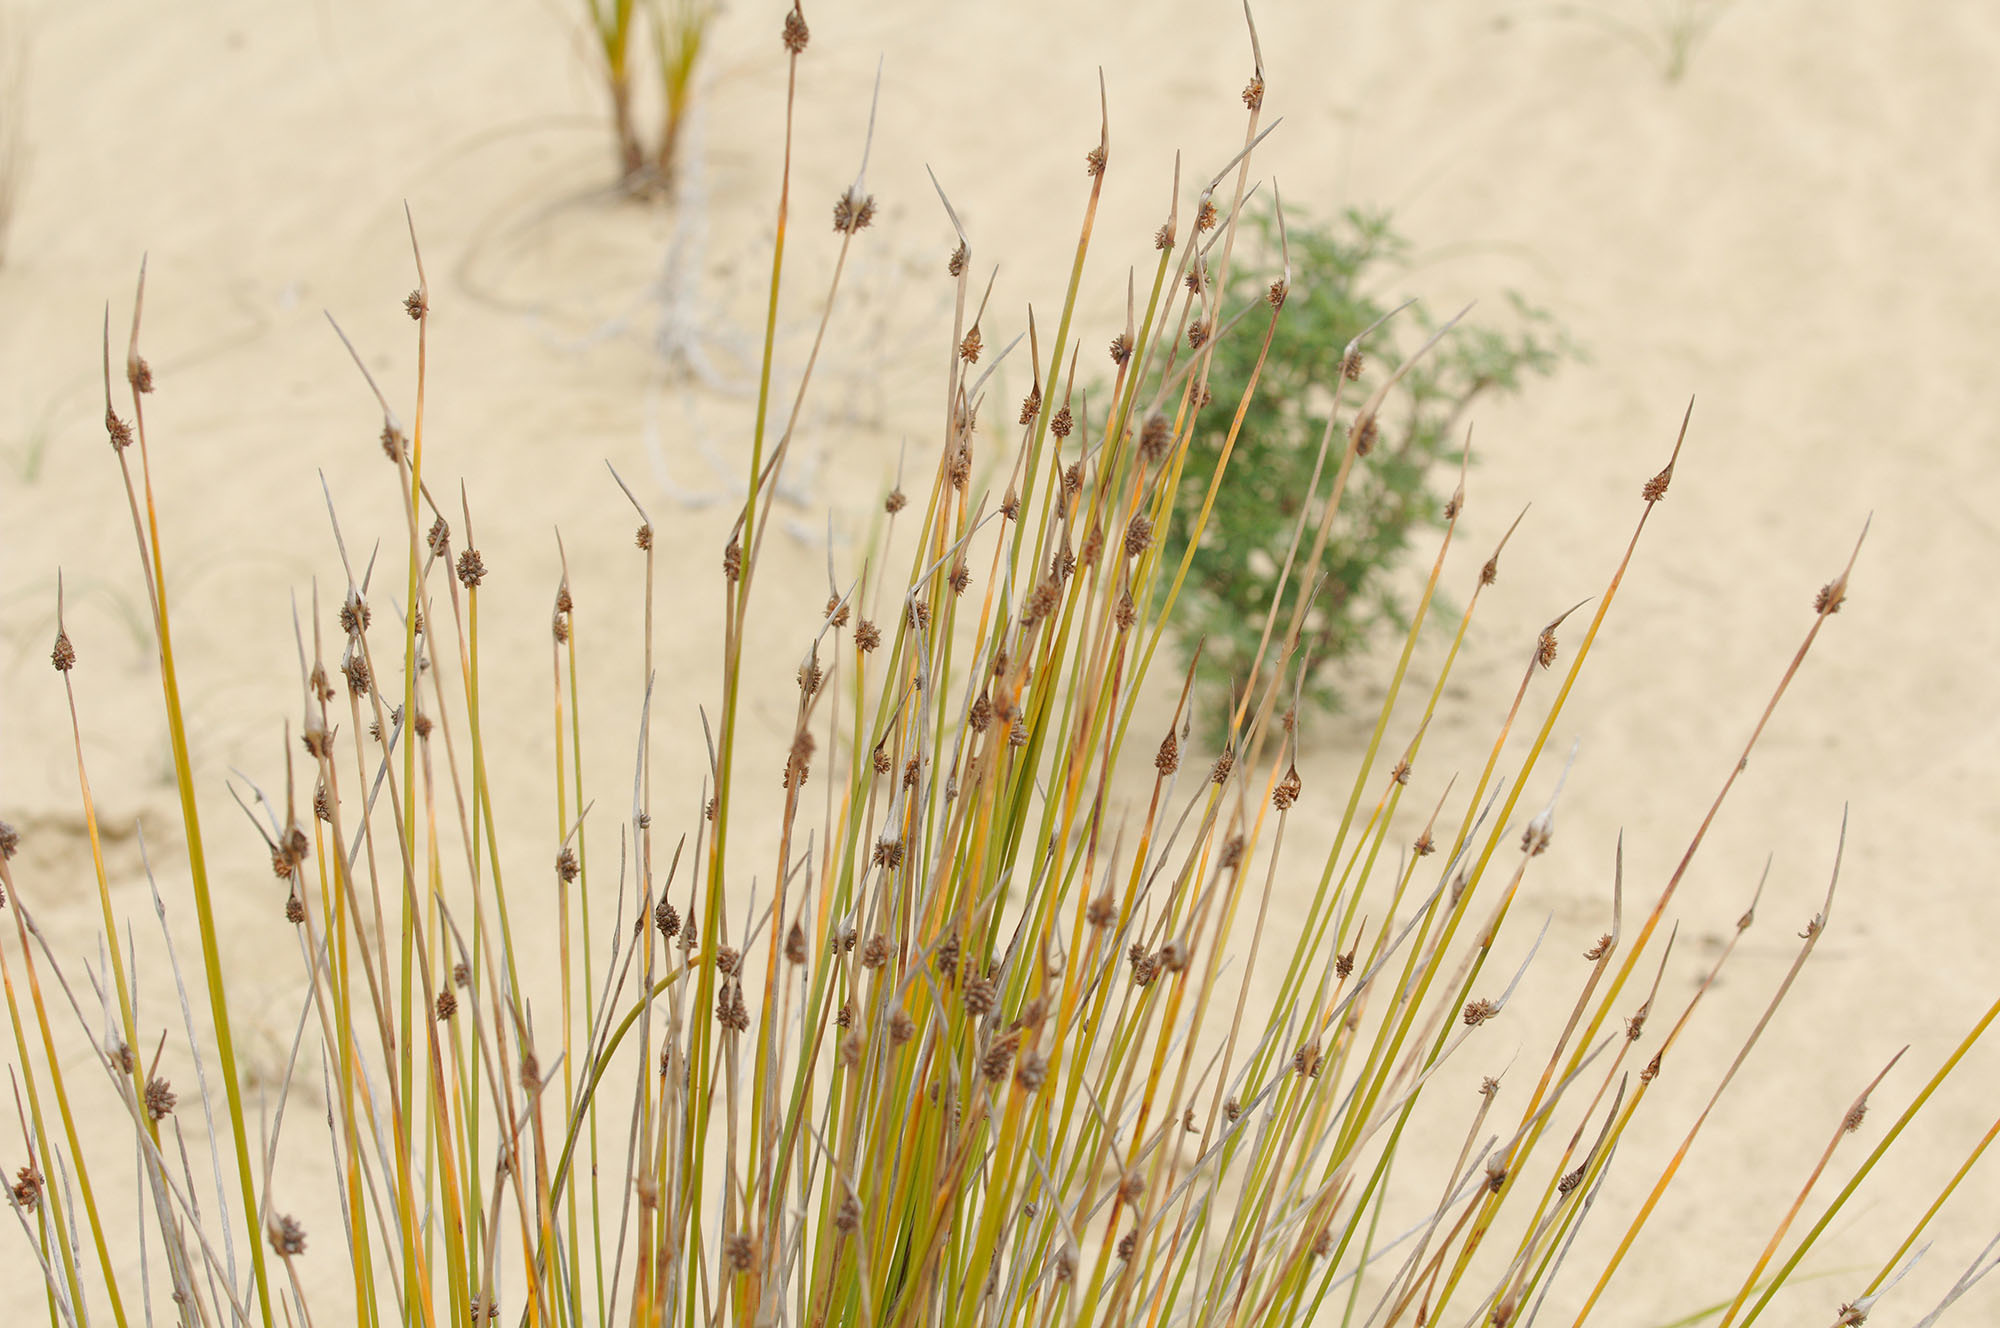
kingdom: Plantae
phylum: Tracheophyta
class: Liliopsida
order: Poales
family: Cyperaceae
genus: Ficinia
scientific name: Ficinia nodosa
